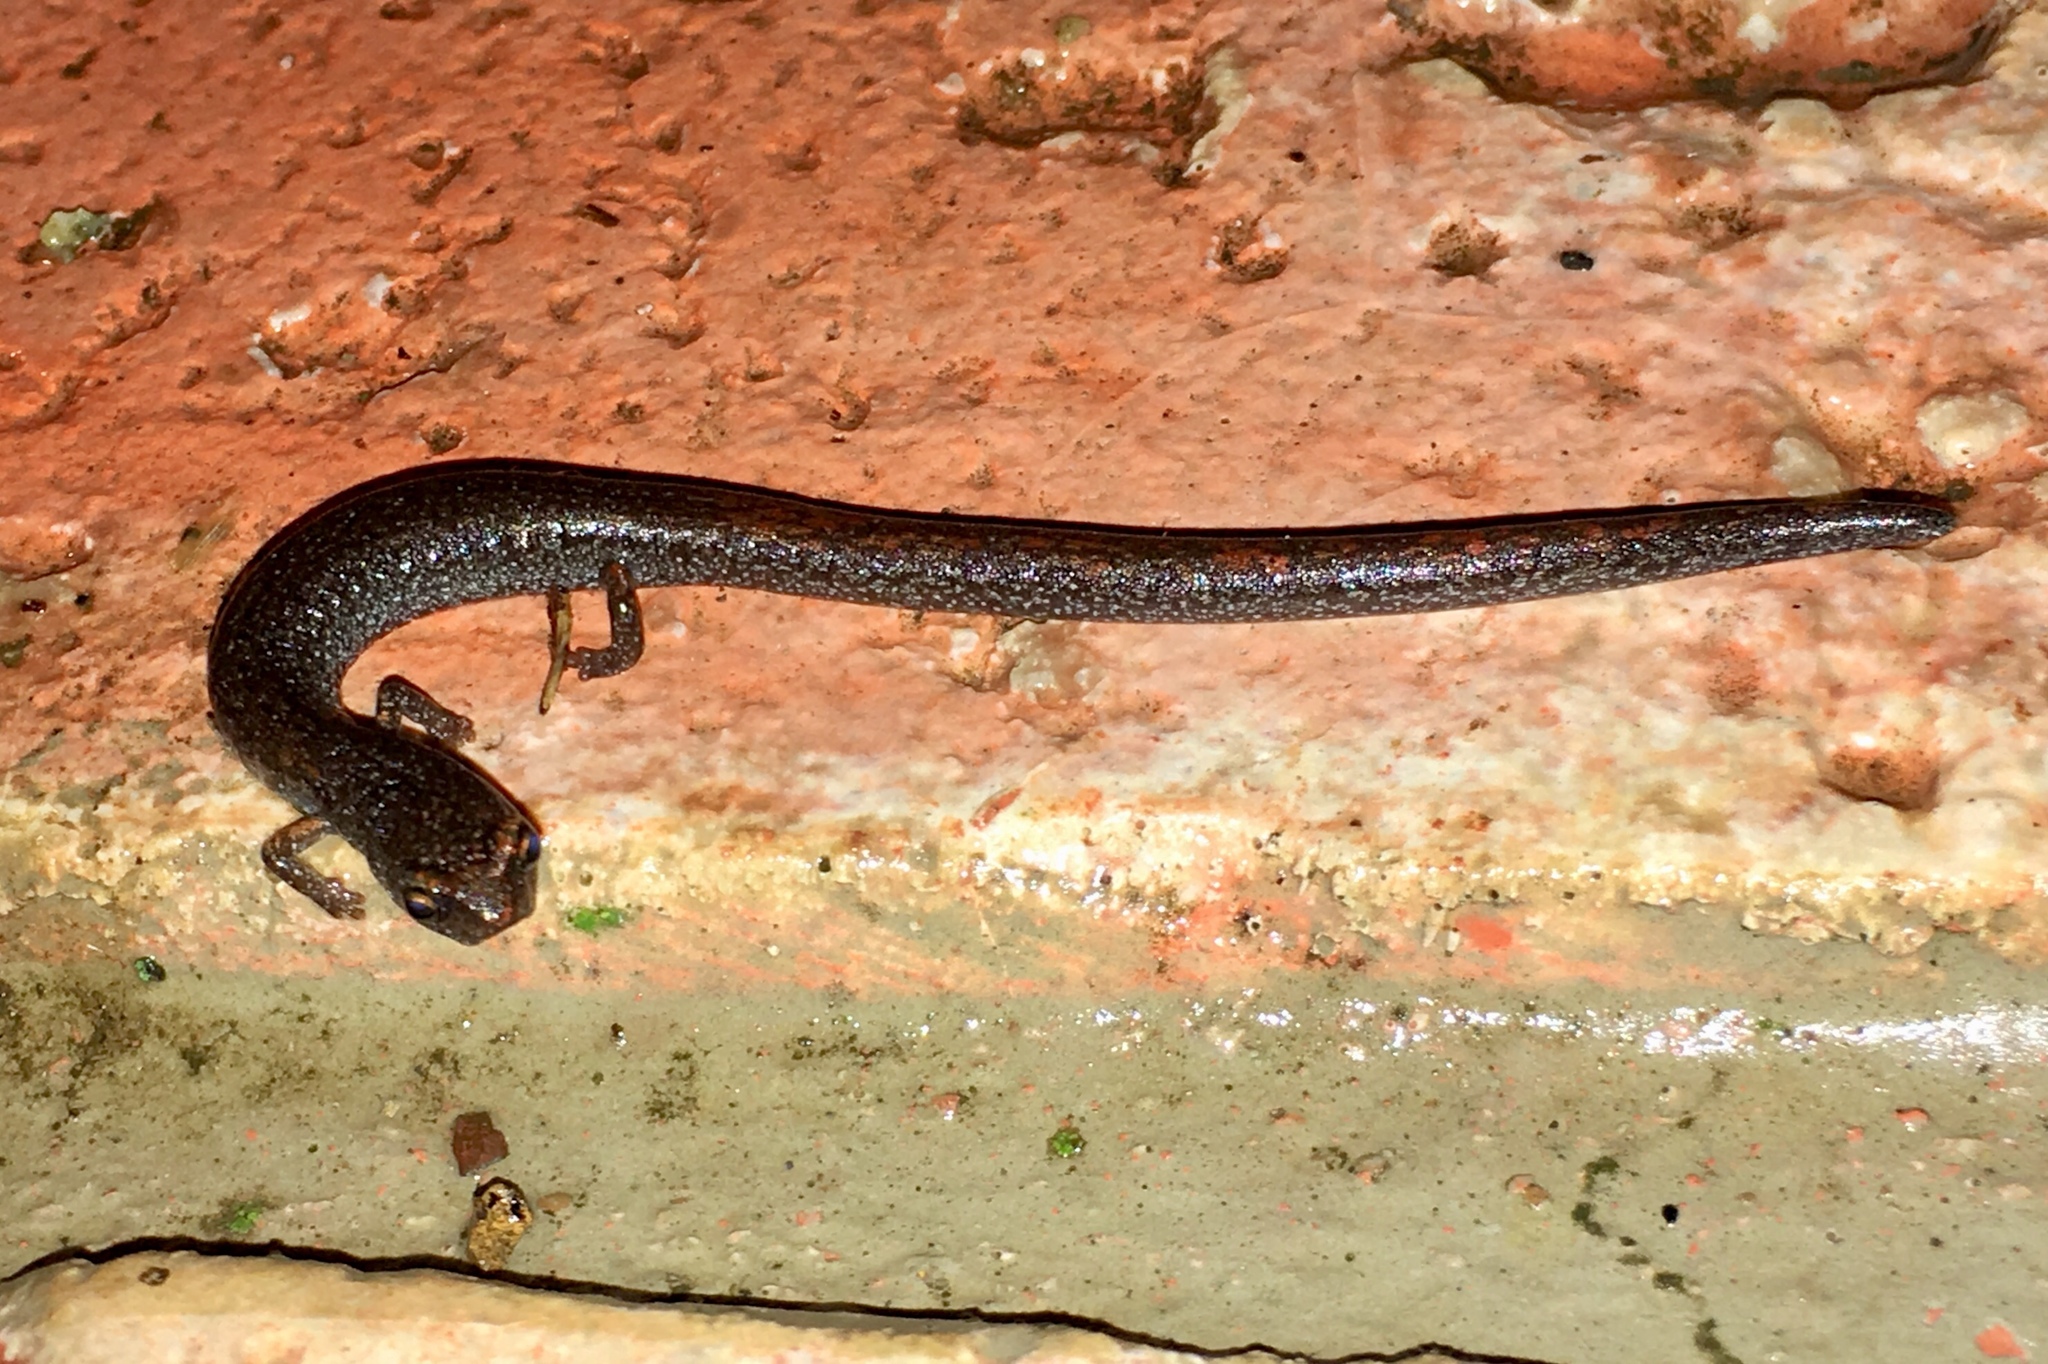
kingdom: Animalia
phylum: Chordata
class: Amphibia
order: Caudata
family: Plethodontidae
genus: Batrachoseps
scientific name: Batrachoseps major
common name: Garden slender salamander
